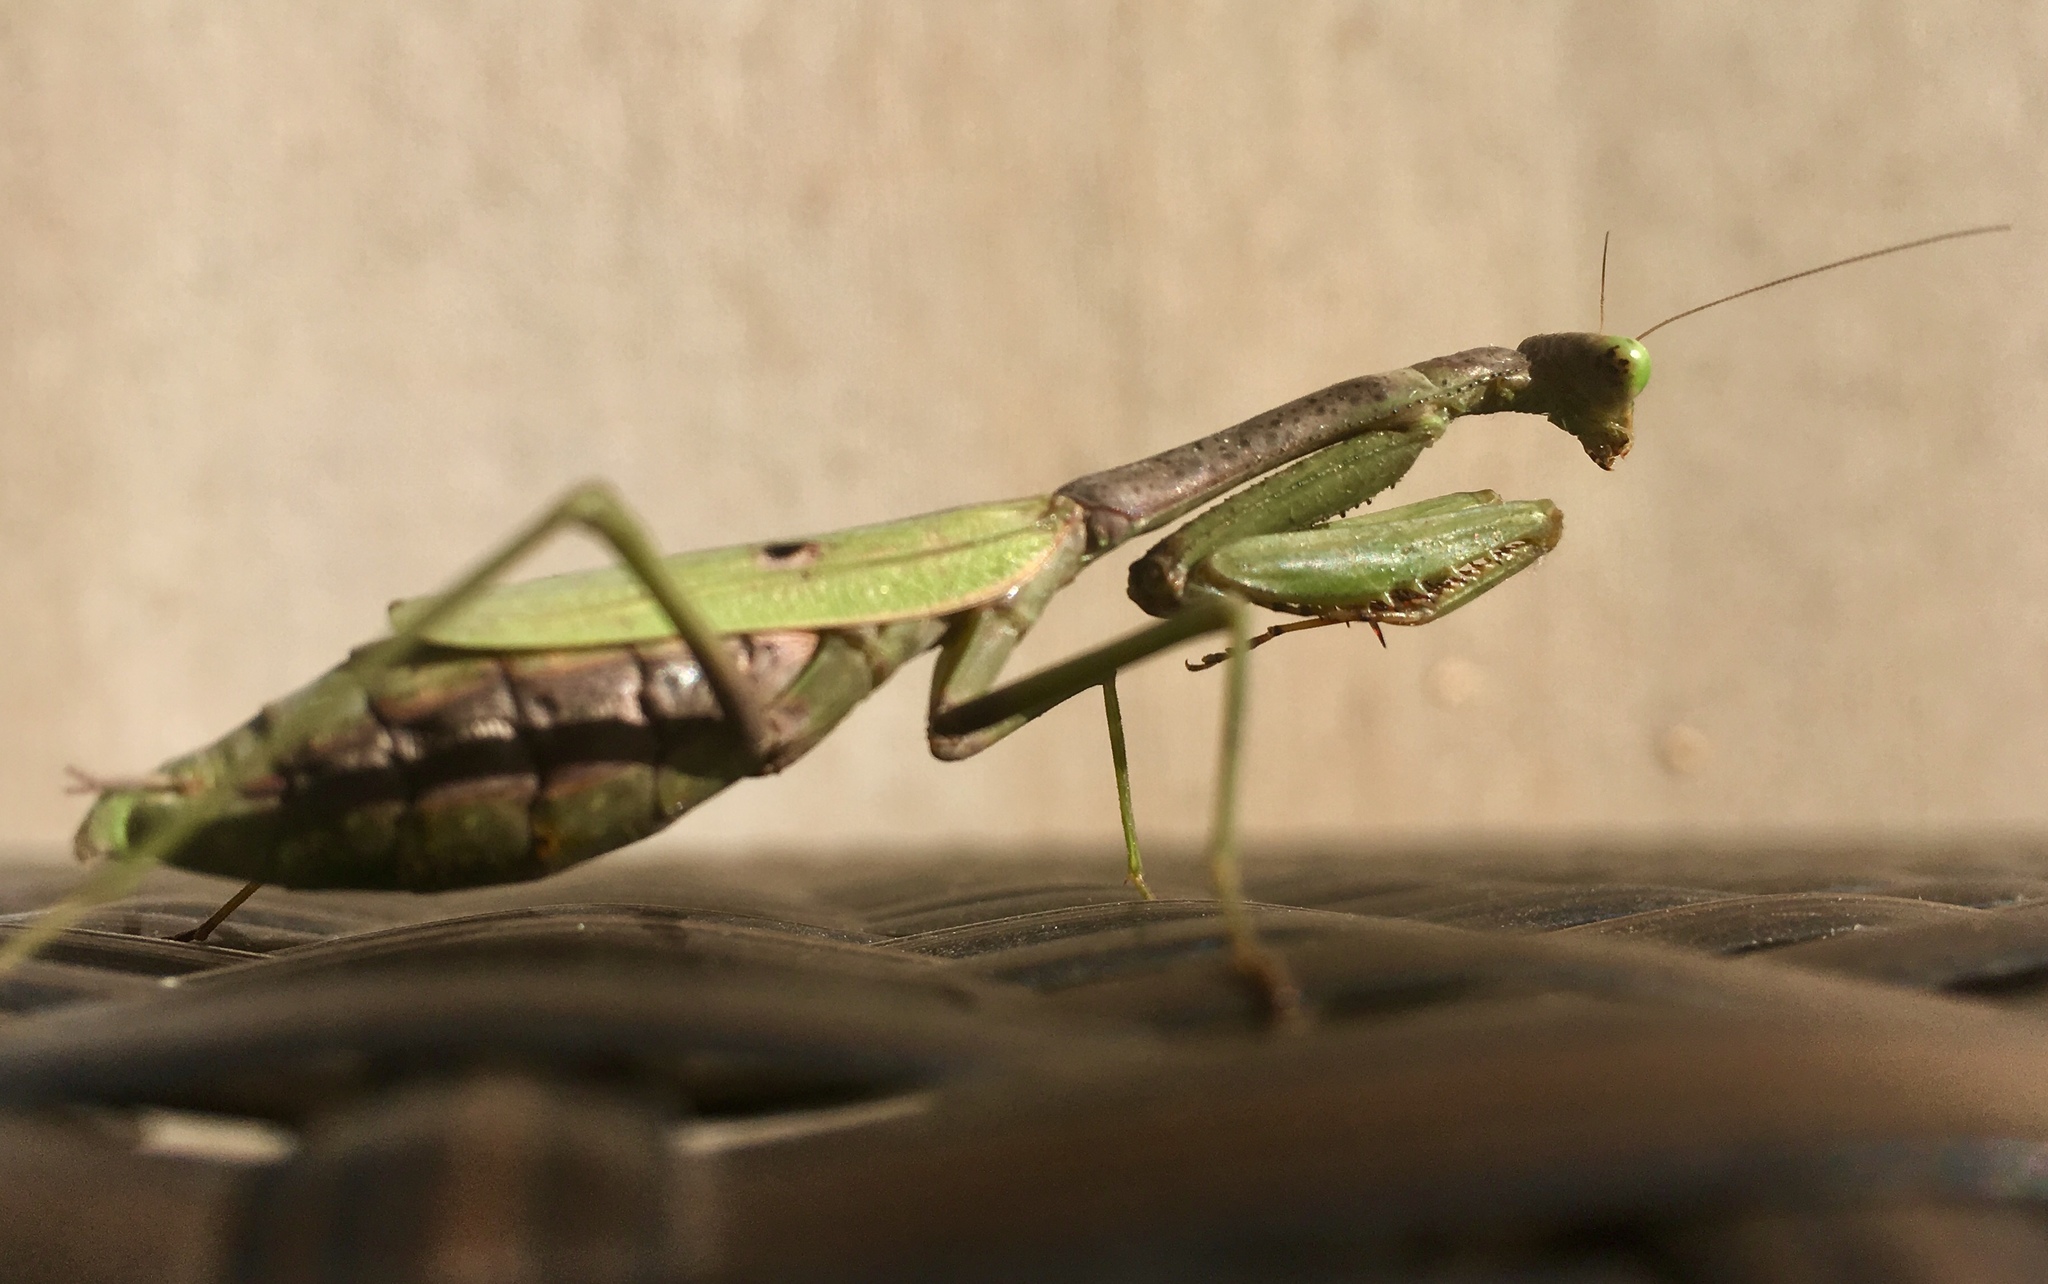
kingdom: Animalia
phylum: Arthropoda
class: Insecta
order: Mantodea
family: Mantidae
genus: Stagmomantis
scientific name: Stagmomantis carolina
